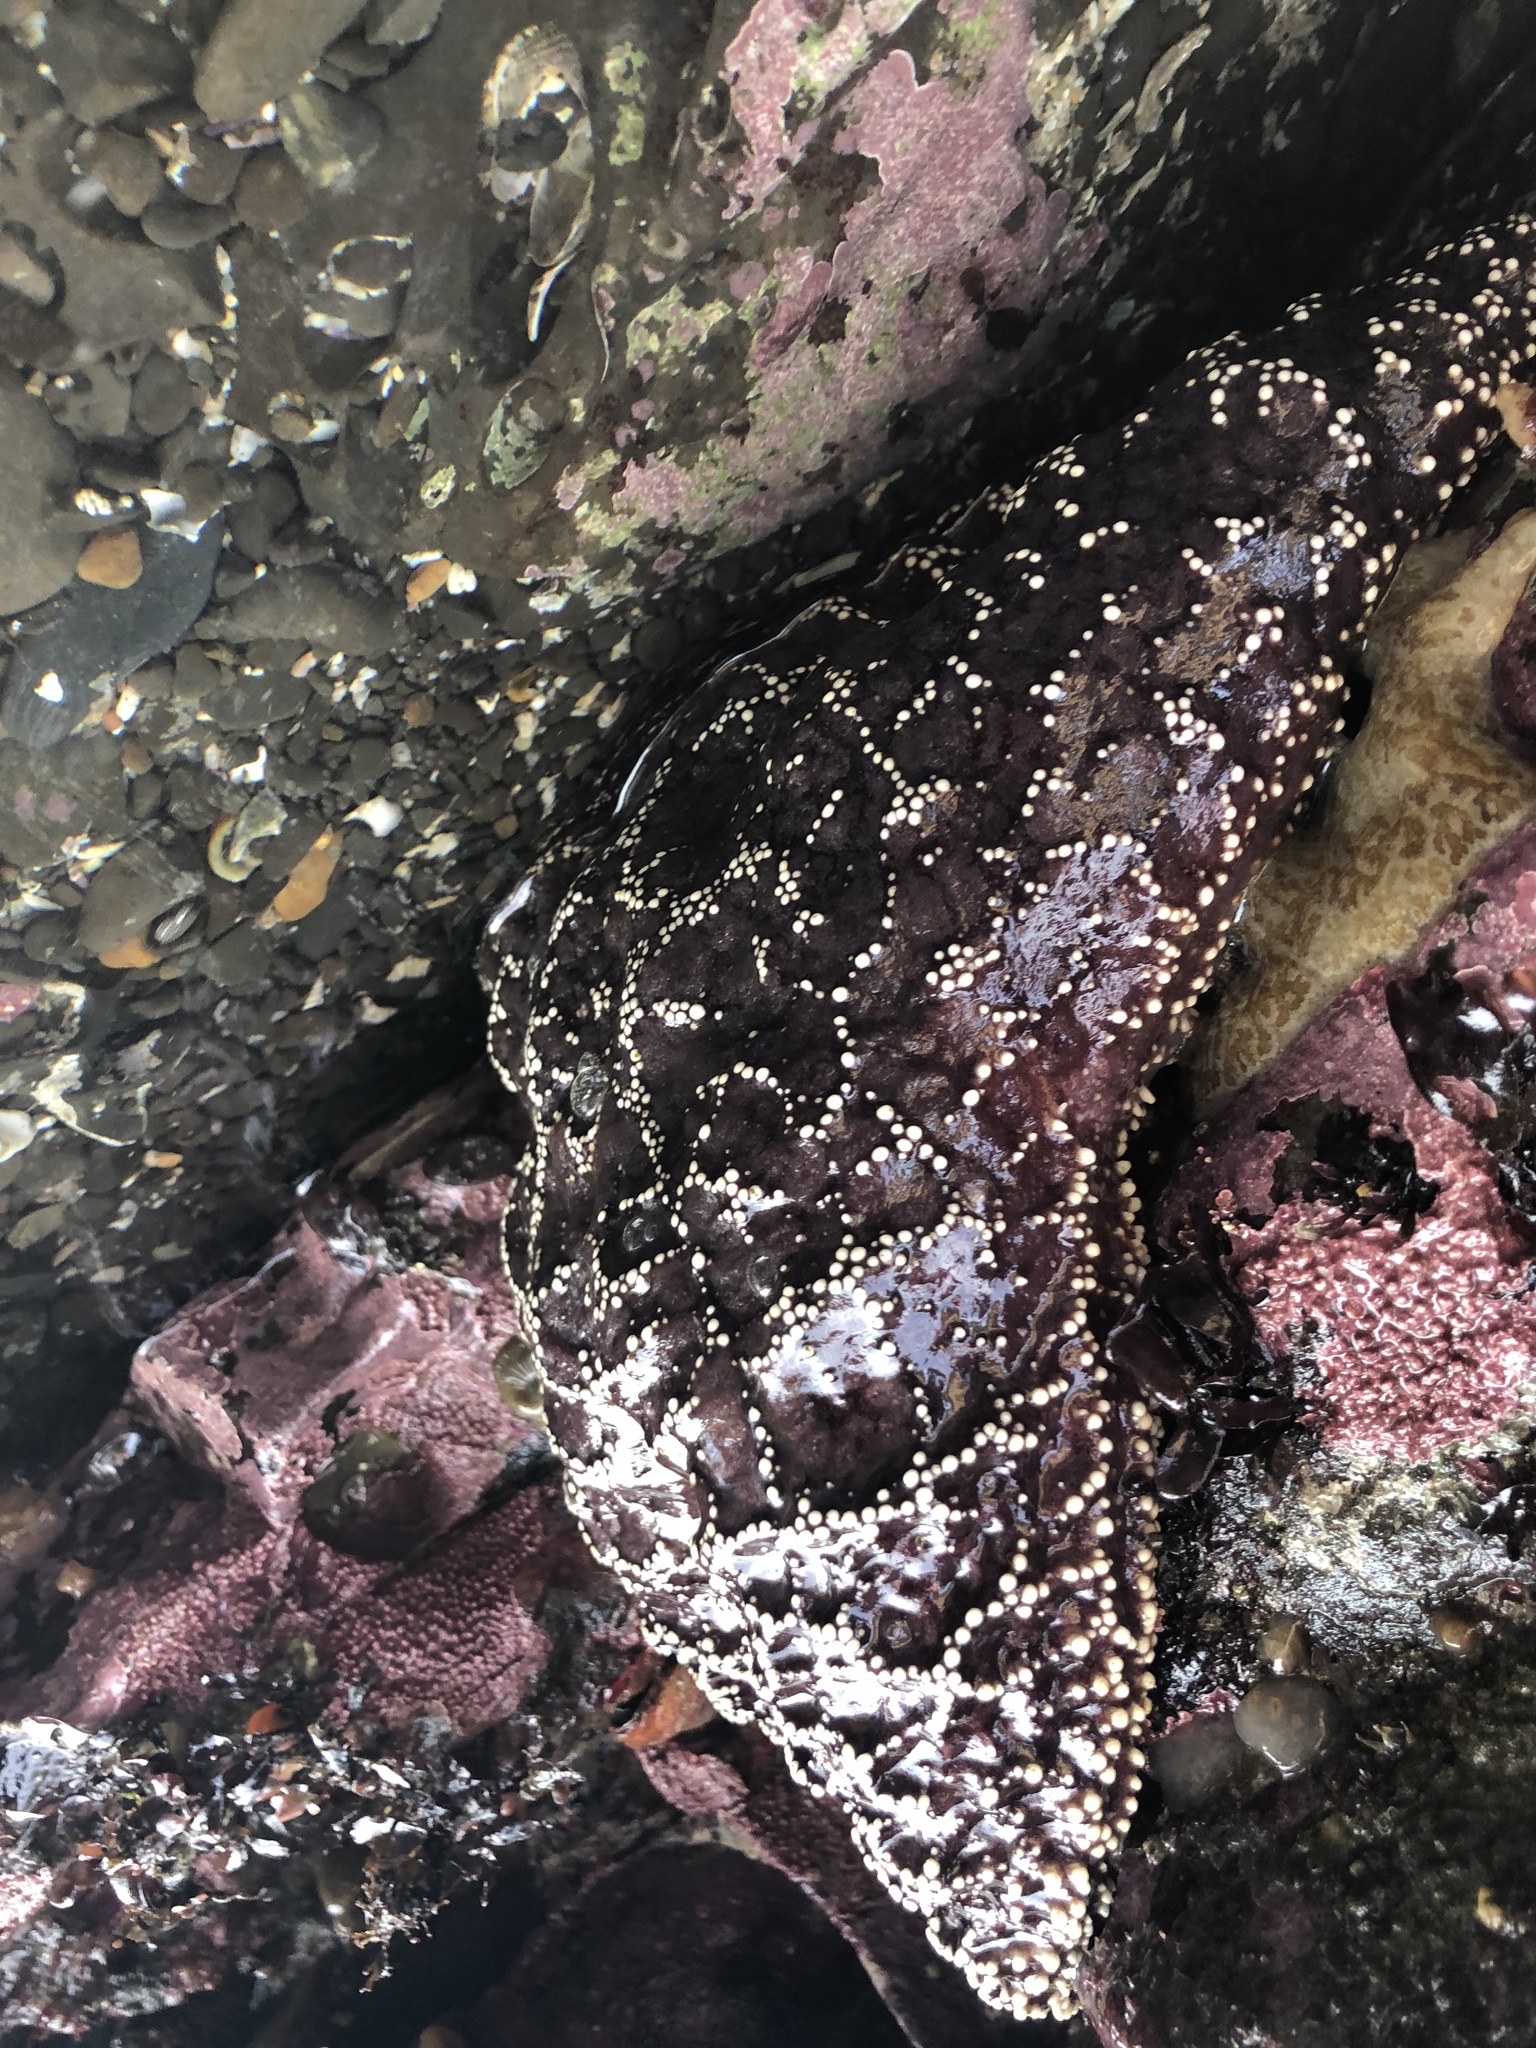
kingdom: Animalia
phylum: Echinodermata
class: Asteroidea
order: Forcipulatida
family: Asteriidae
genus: Pisaster
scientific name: Pisaster ochraceus
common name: Ochre stars
